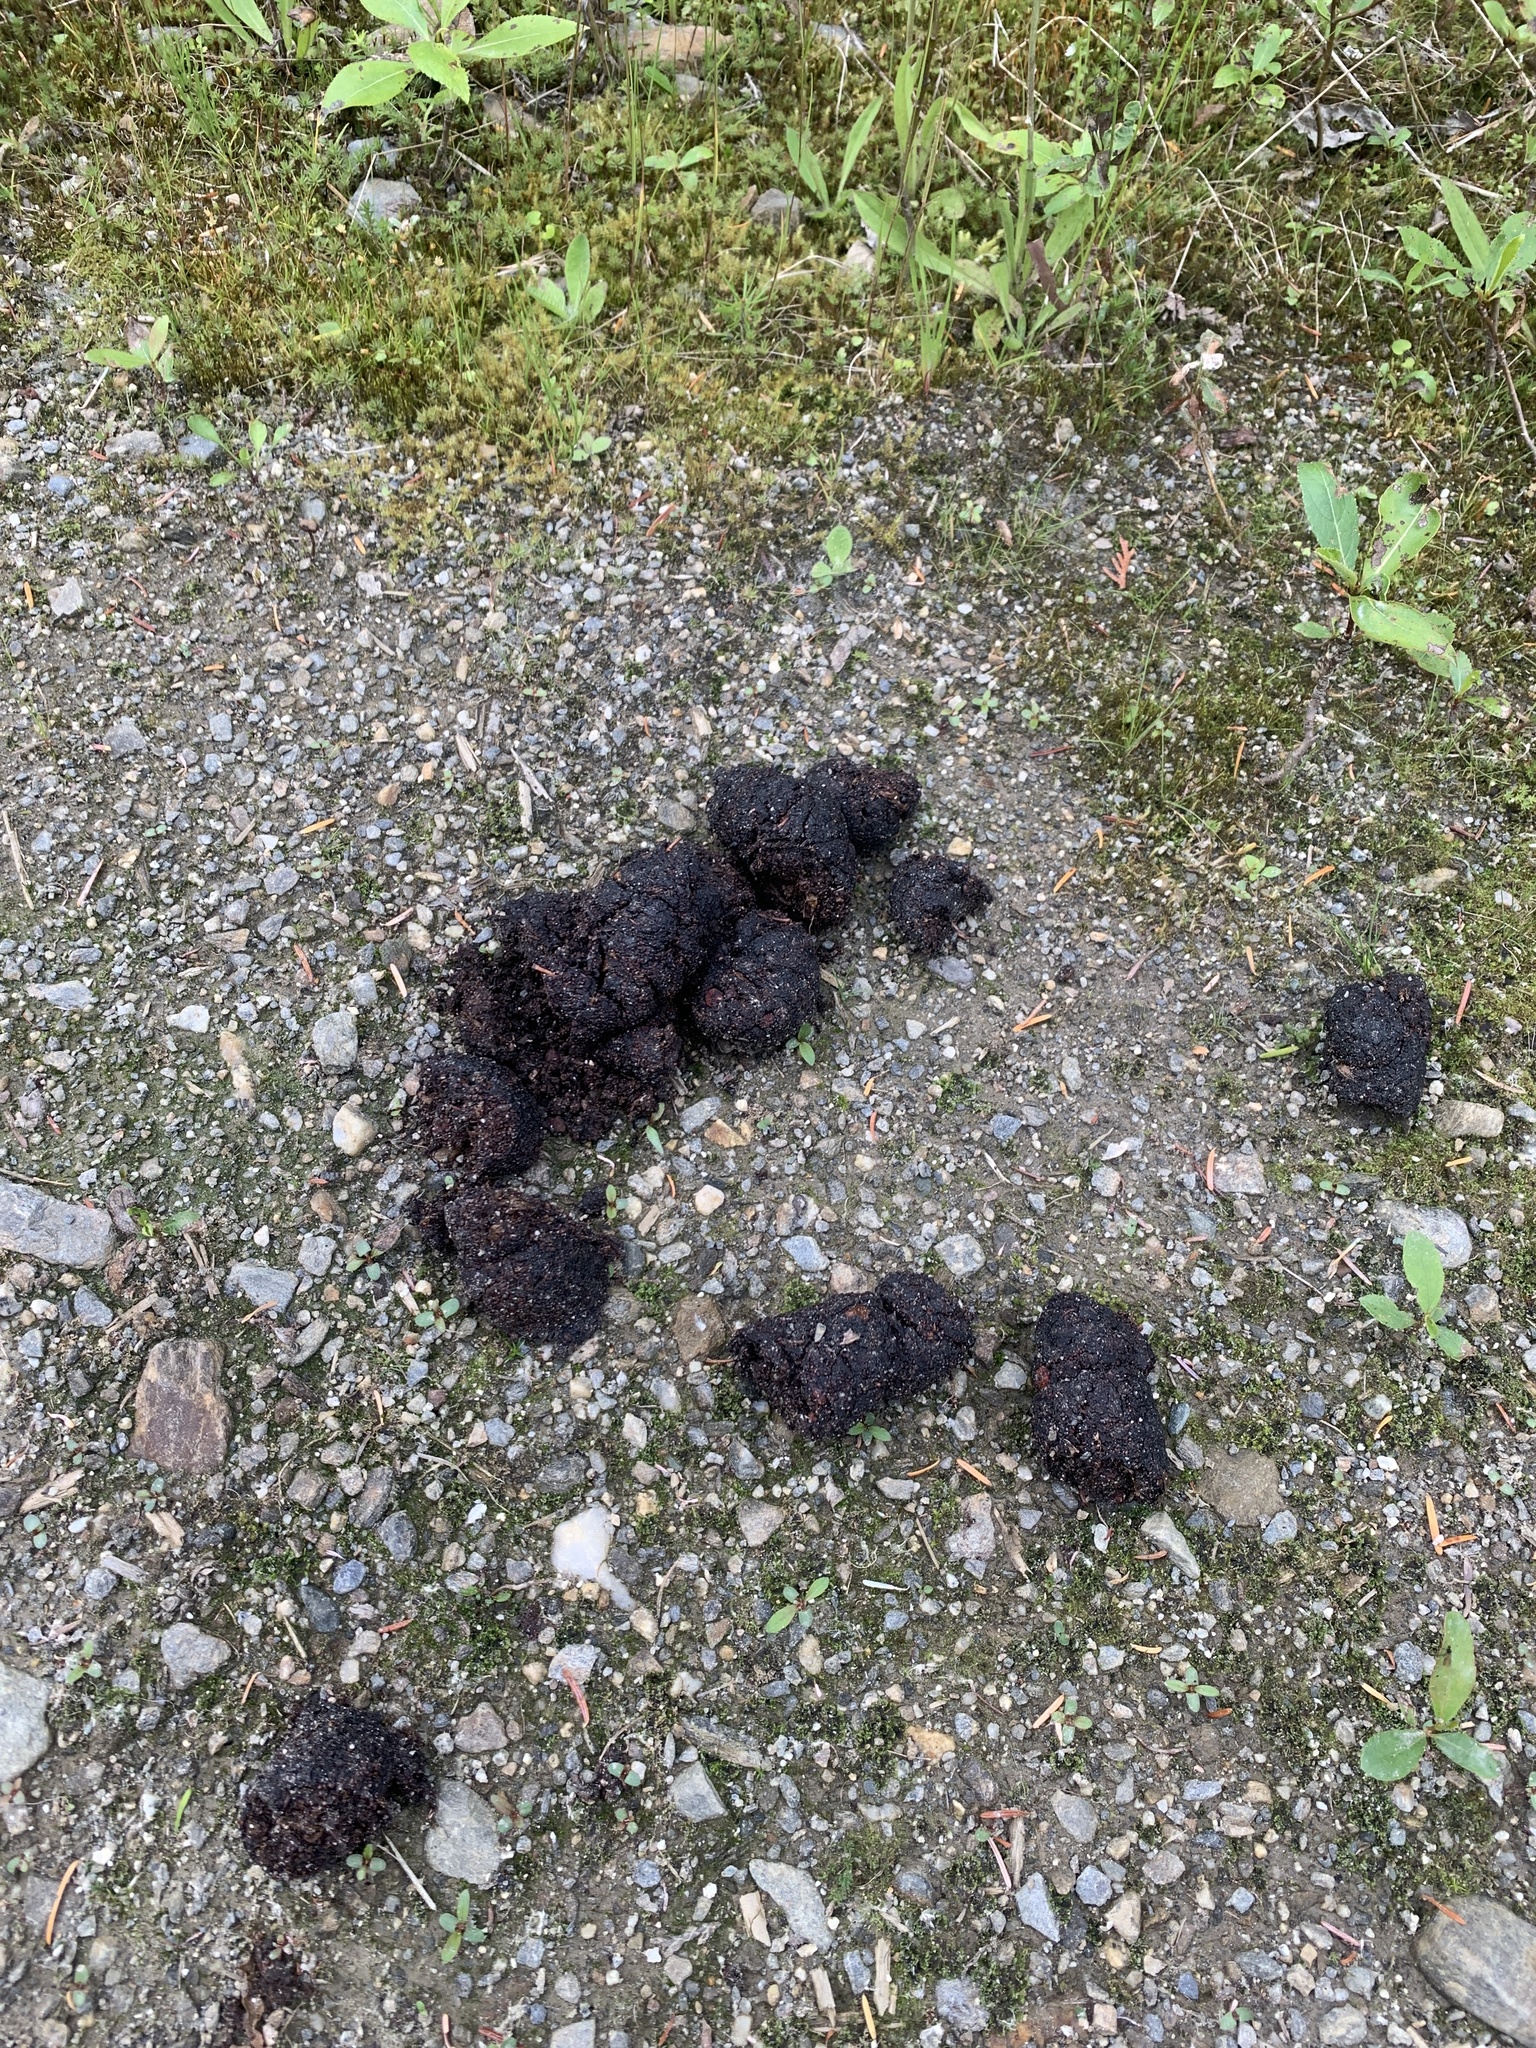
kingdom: Animalia
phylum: Chordata
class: Mammalia
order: Carnivora
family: Ursidae
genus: Ursus
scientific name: Ursus
